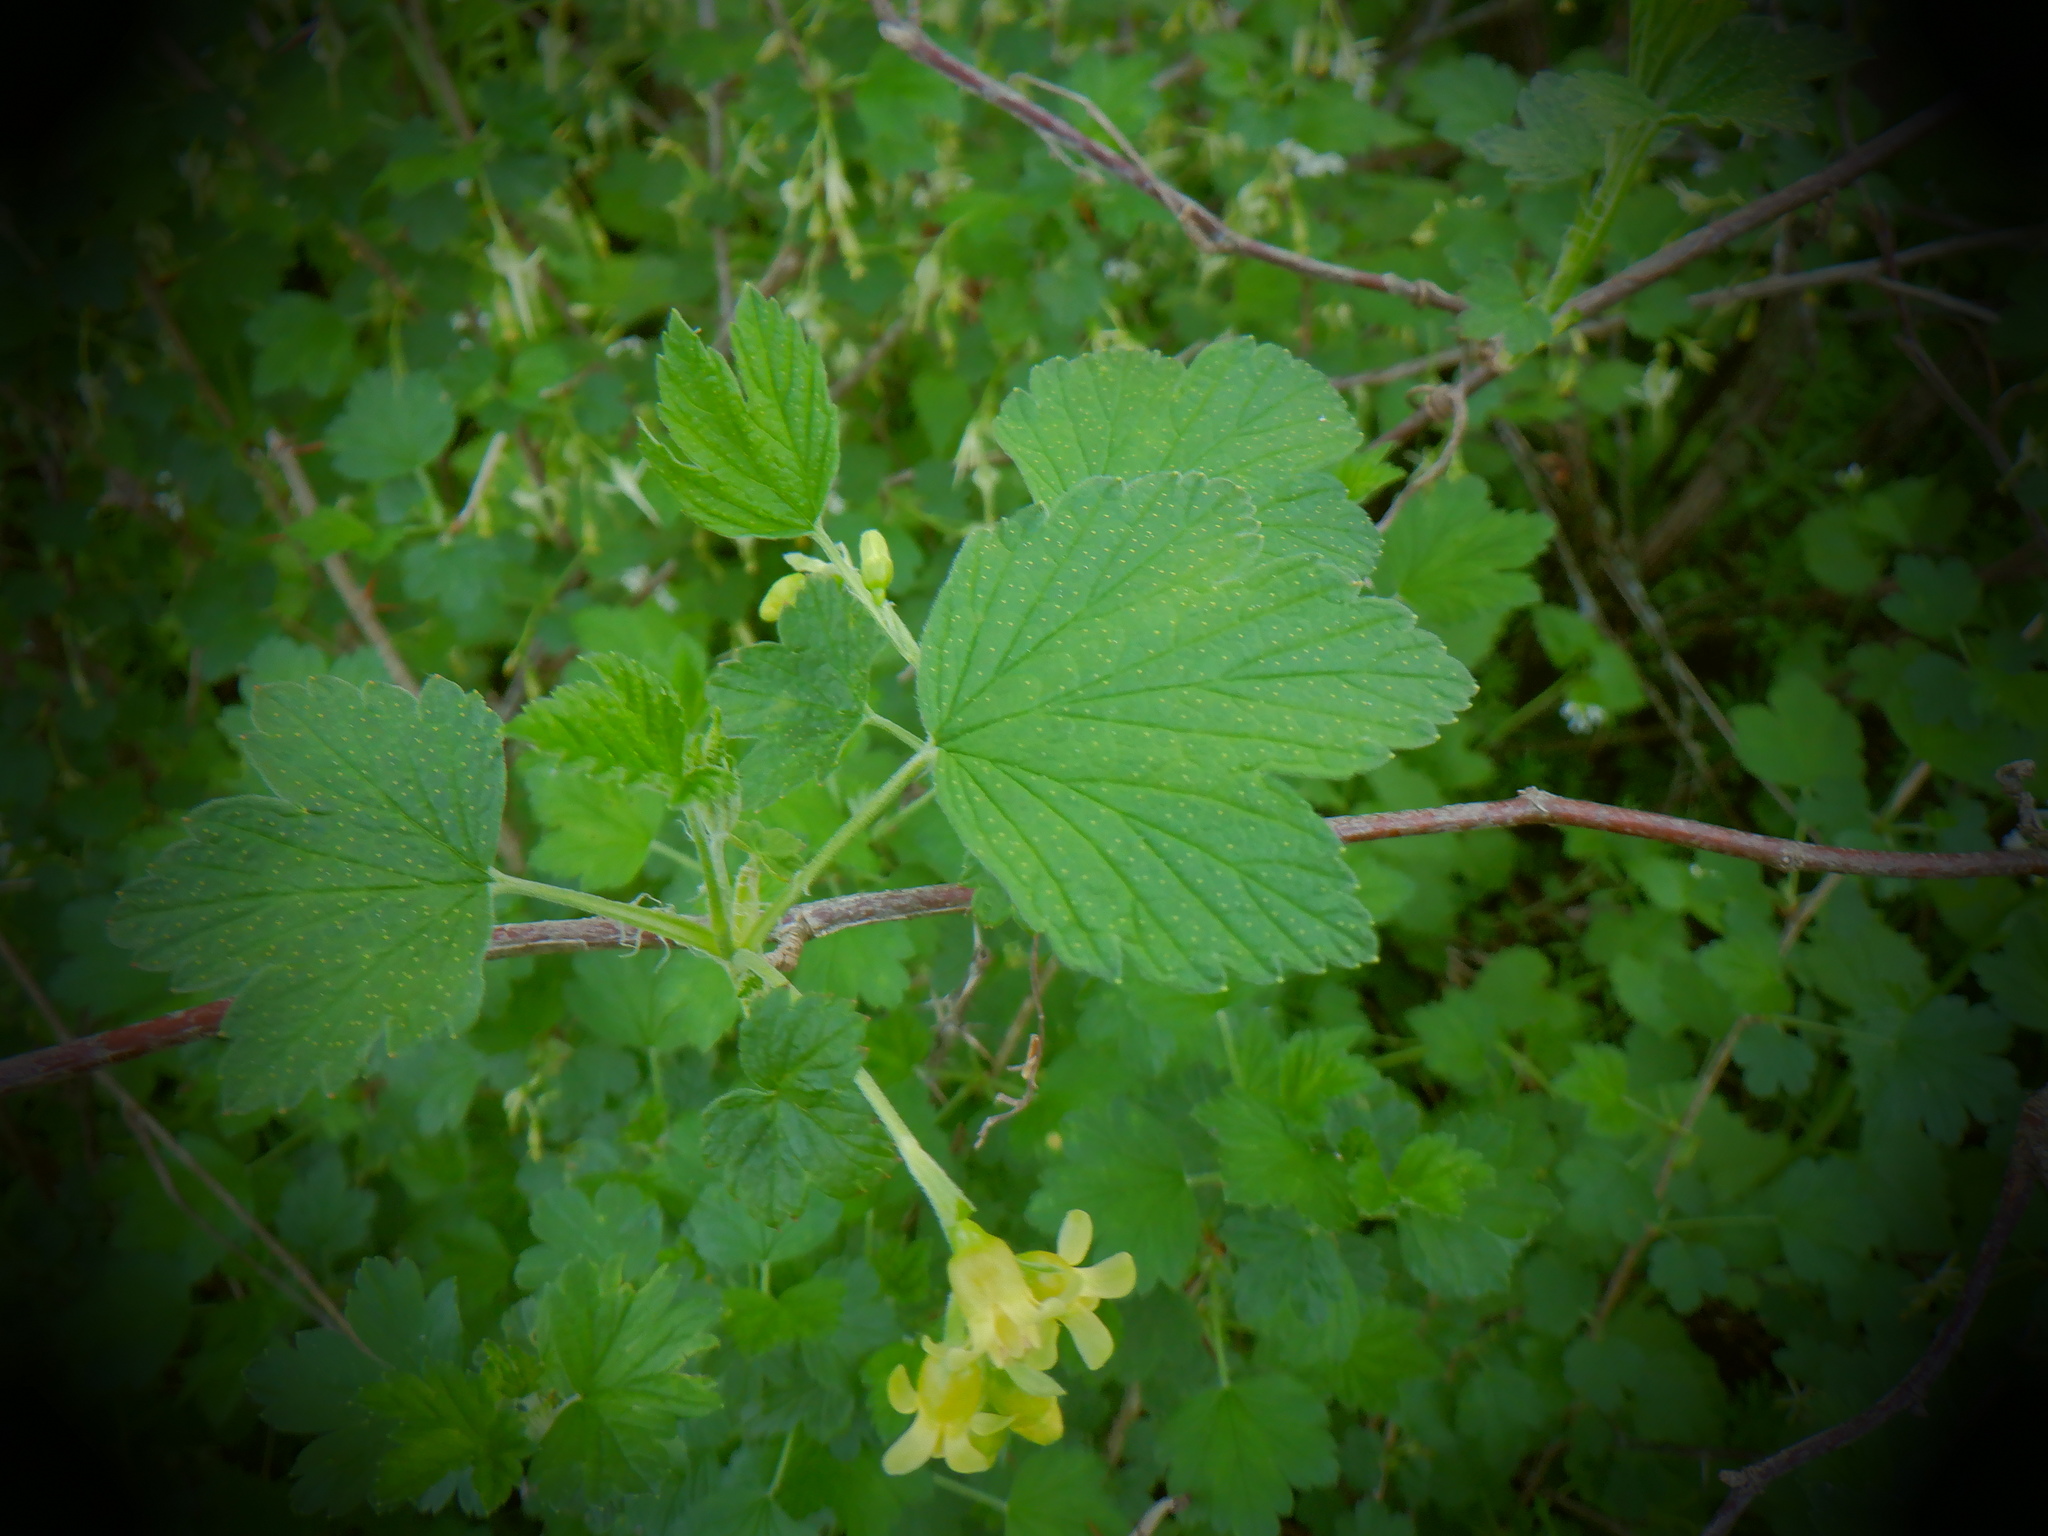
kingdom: Plantae
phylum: Tracheophyta
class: Magnoliopsida
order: Saxifragales
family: Grossulariaceae
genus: Ribes
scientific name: Ribes americanum
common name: American black currant
